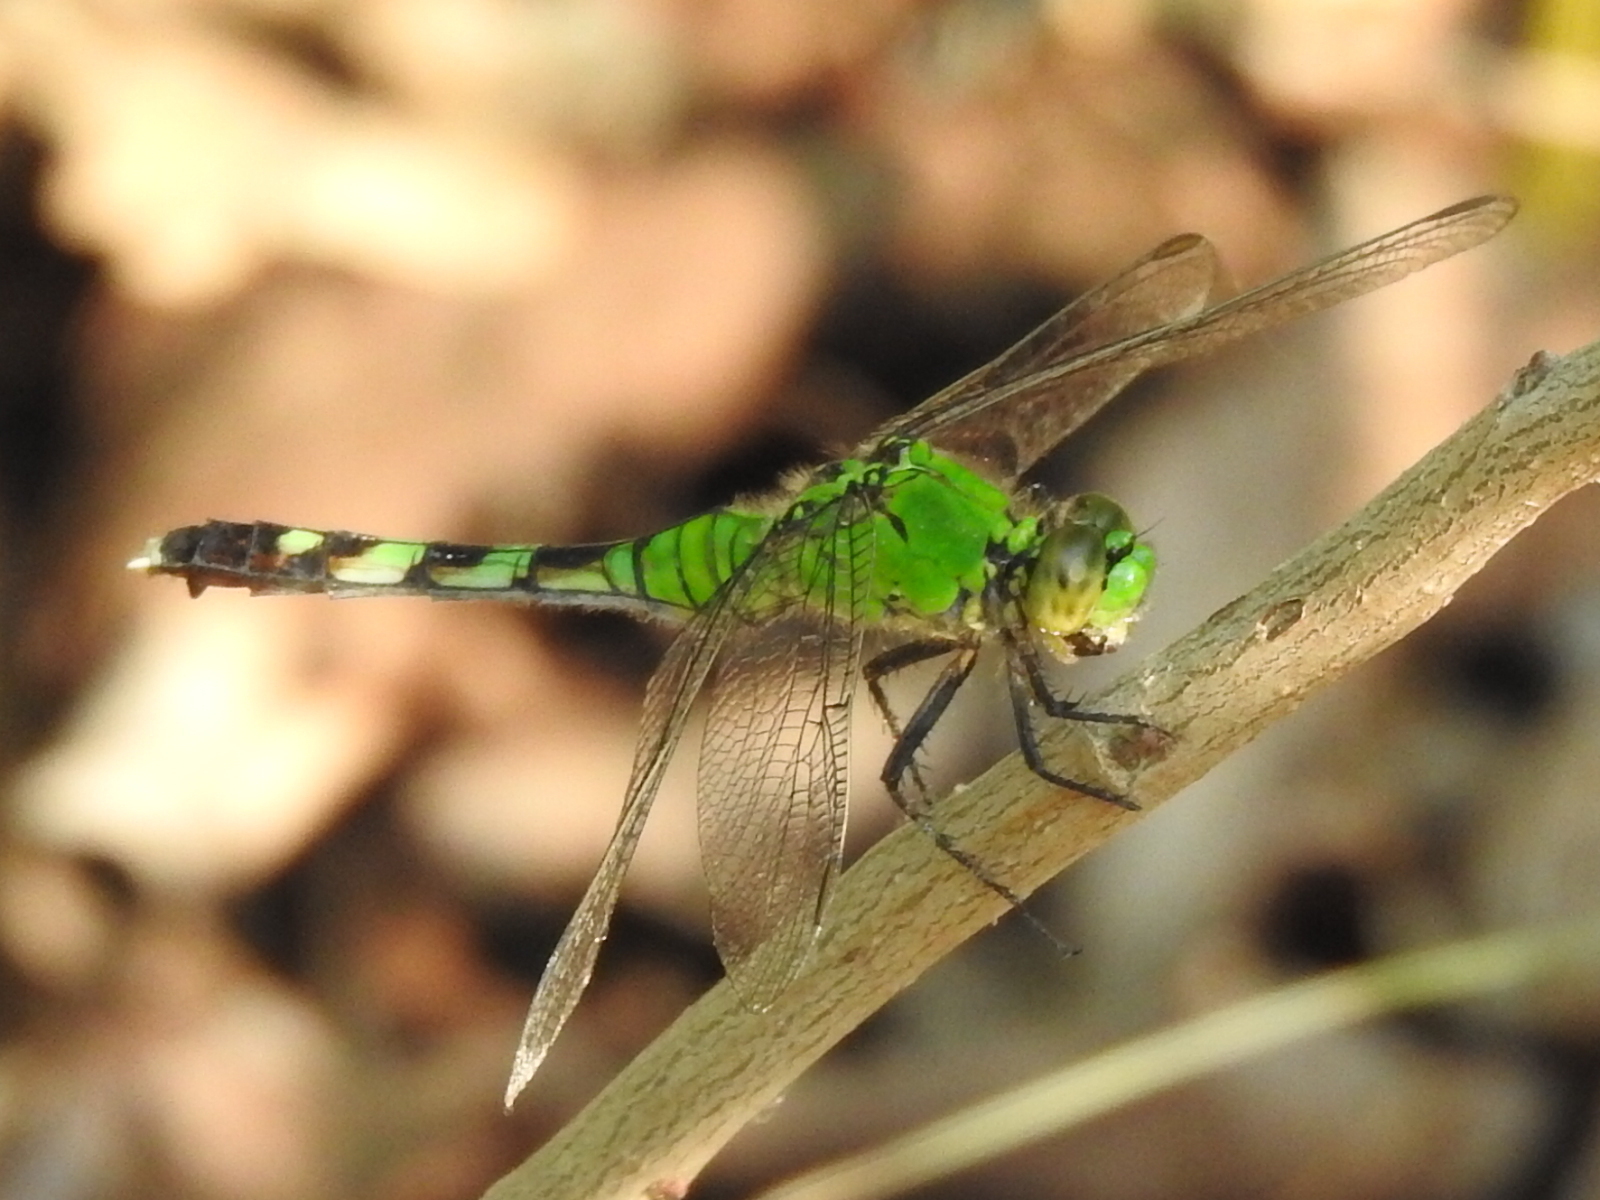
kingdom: Animalia
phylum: Arthropoda
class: Insecta
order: Odonata
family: Libellulidae
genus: Erythemis
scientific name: Erythemis simplicicollis
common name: Eastern pondhawk
